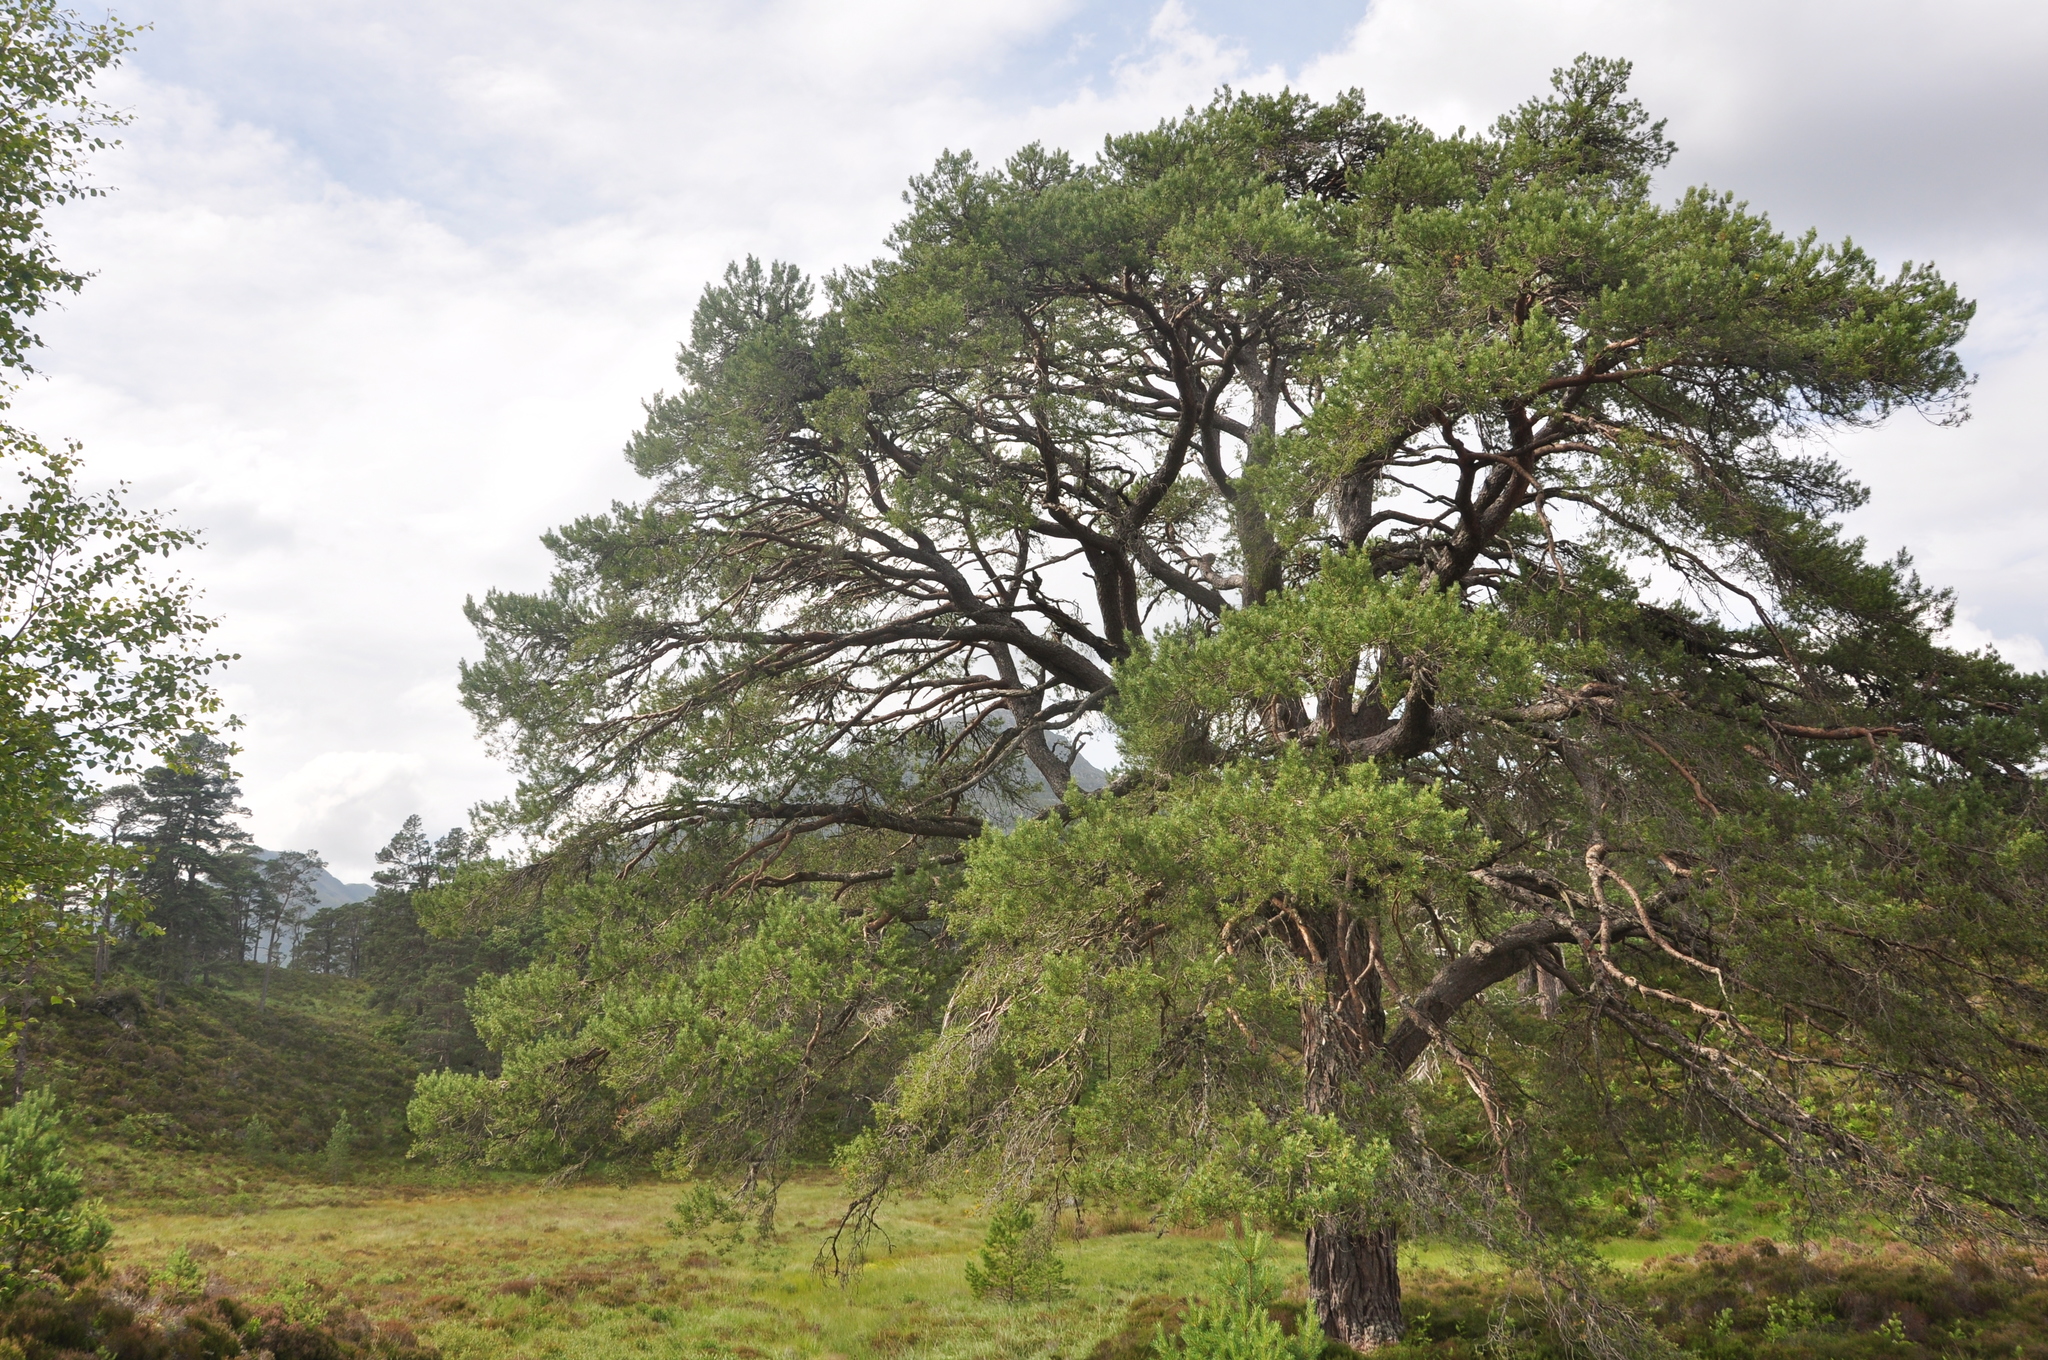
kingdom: Plantae
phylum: Tracheophyta
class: Pinopsida
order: Pinales
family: Pinaceae
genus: Pinus
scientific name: Pinus sylvestris
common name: Scots pine
